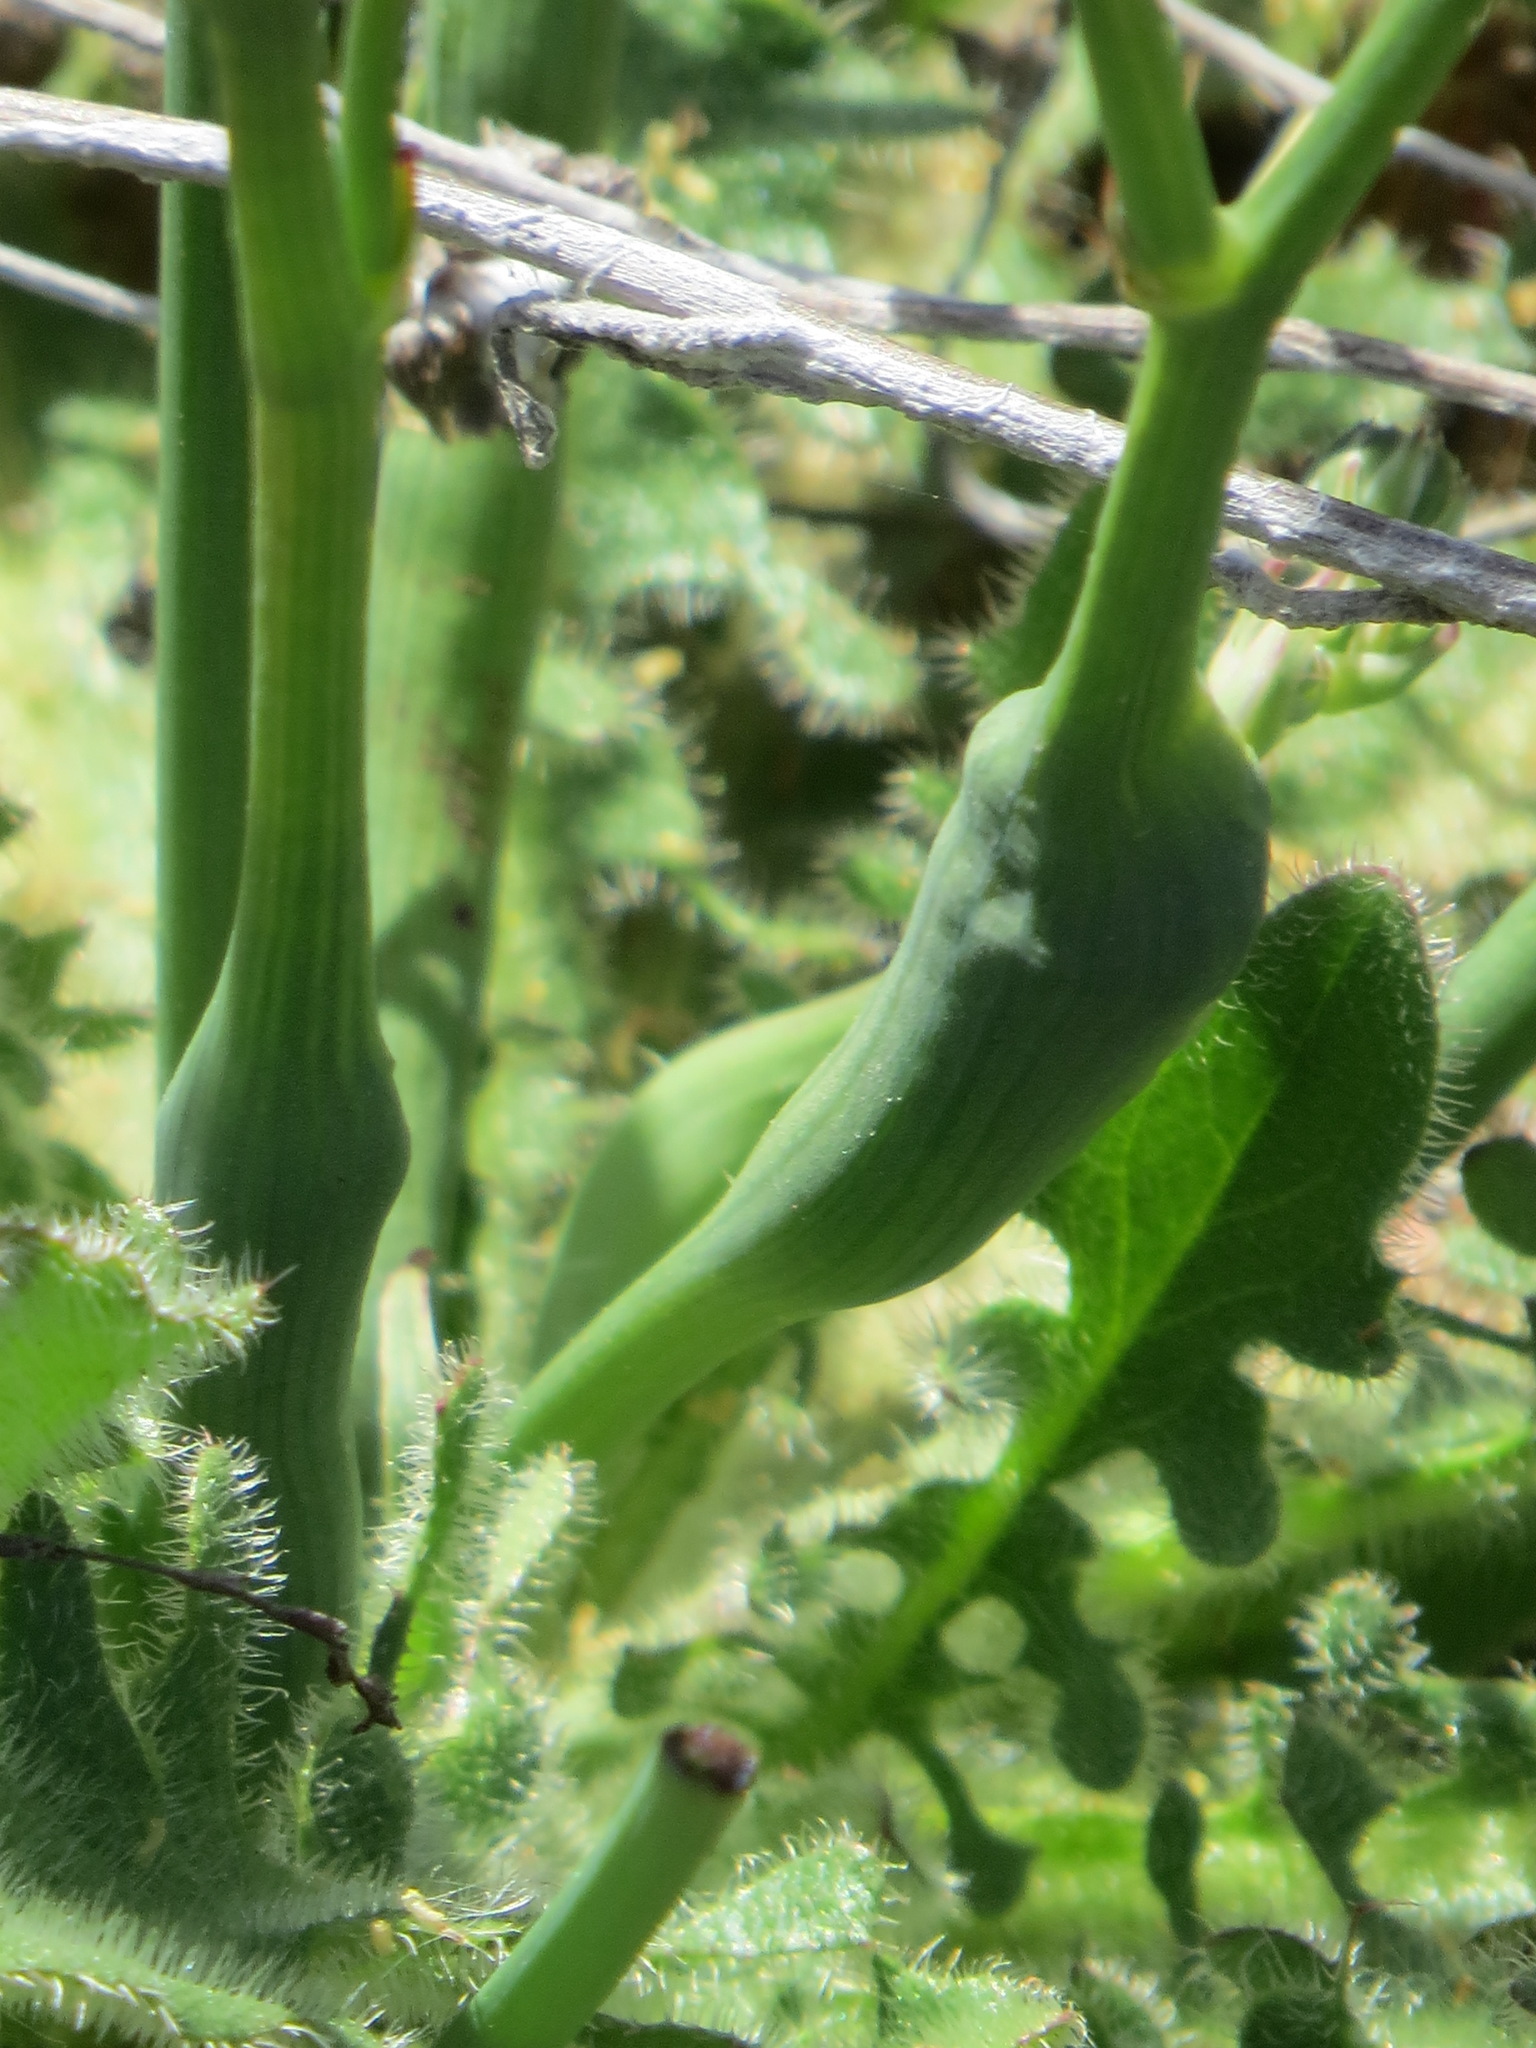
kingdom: Animalia
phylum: Arthropoda
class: Insecta
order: Hymenoptera
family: Cynipidae
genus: Phanacis
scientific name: Phanacis hypochoeridis
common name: Gall wasp
